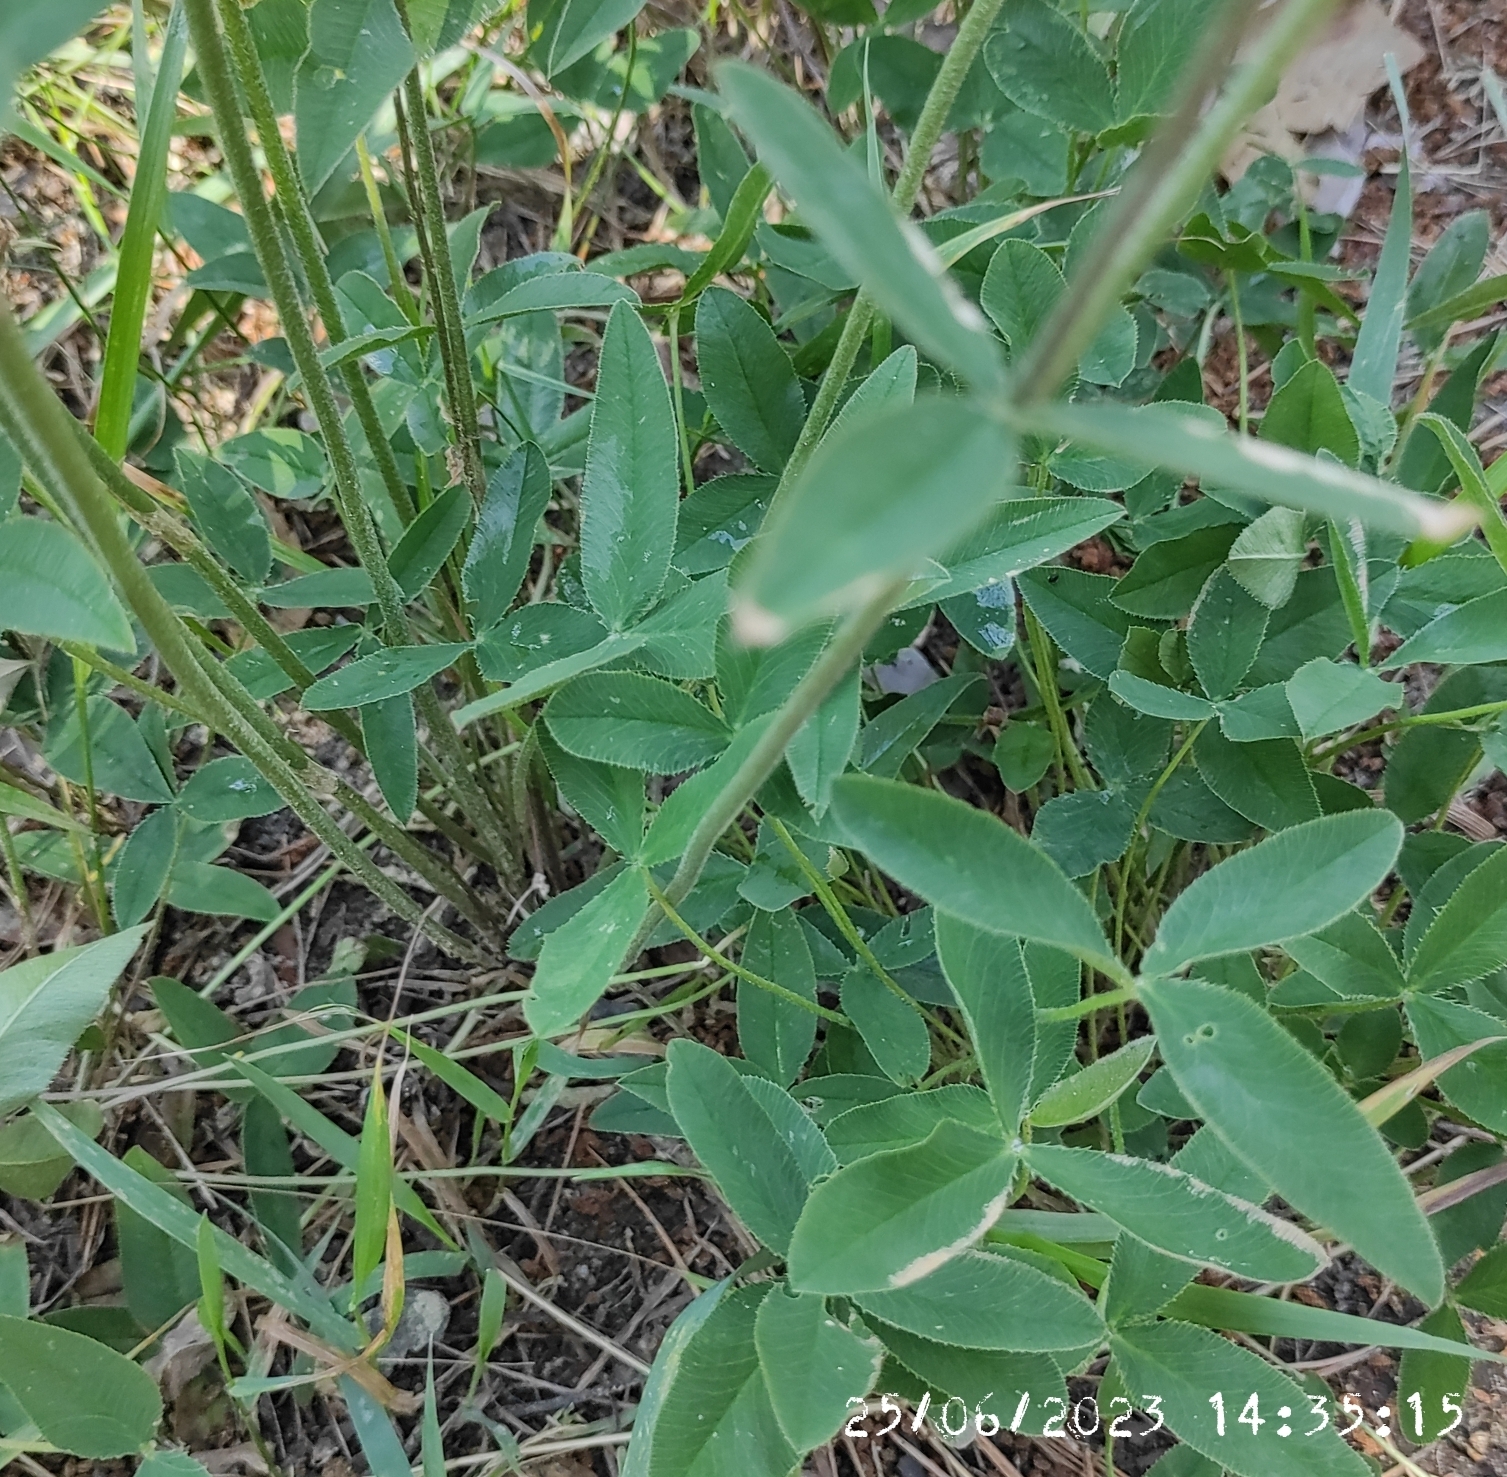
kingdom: Plantae
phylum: Tracheophyta
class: Magnoliopsida
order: Fabales
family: Fabaceae
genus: Trifolium
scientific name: Trifolium montanum
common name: Mountain clover
